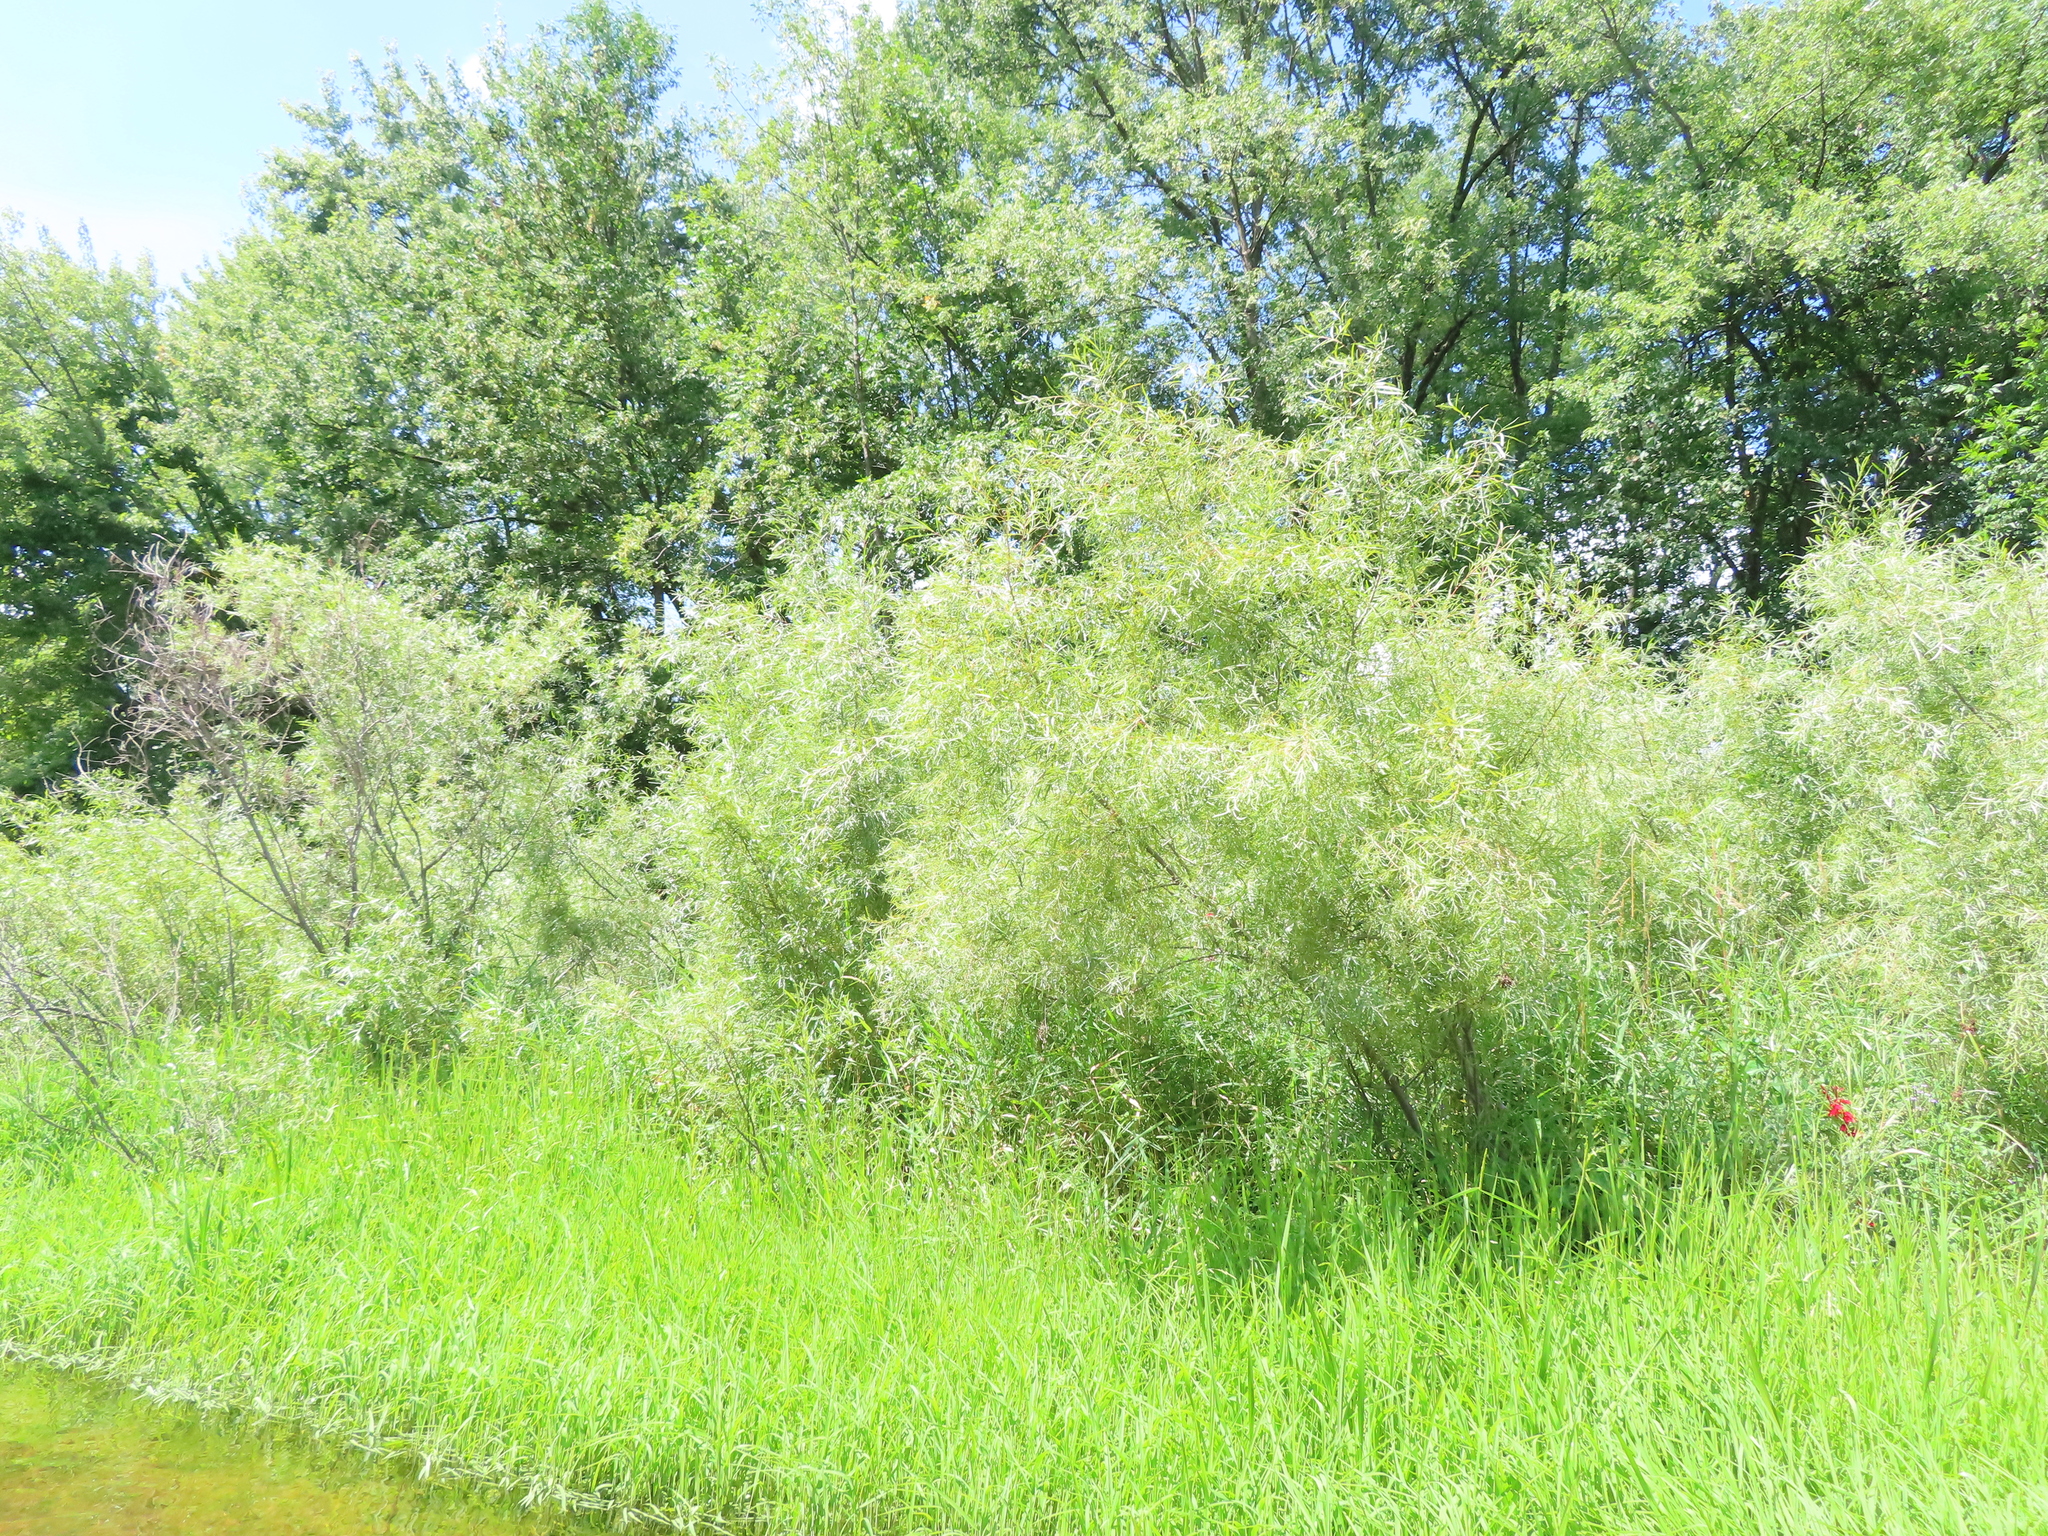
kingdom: Plantae
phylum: Tracheophyta
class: Magnoliopsida
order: Malpighiales
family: Salicaceae
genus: Salix
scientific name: Salix interior
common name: Sandbar willow
